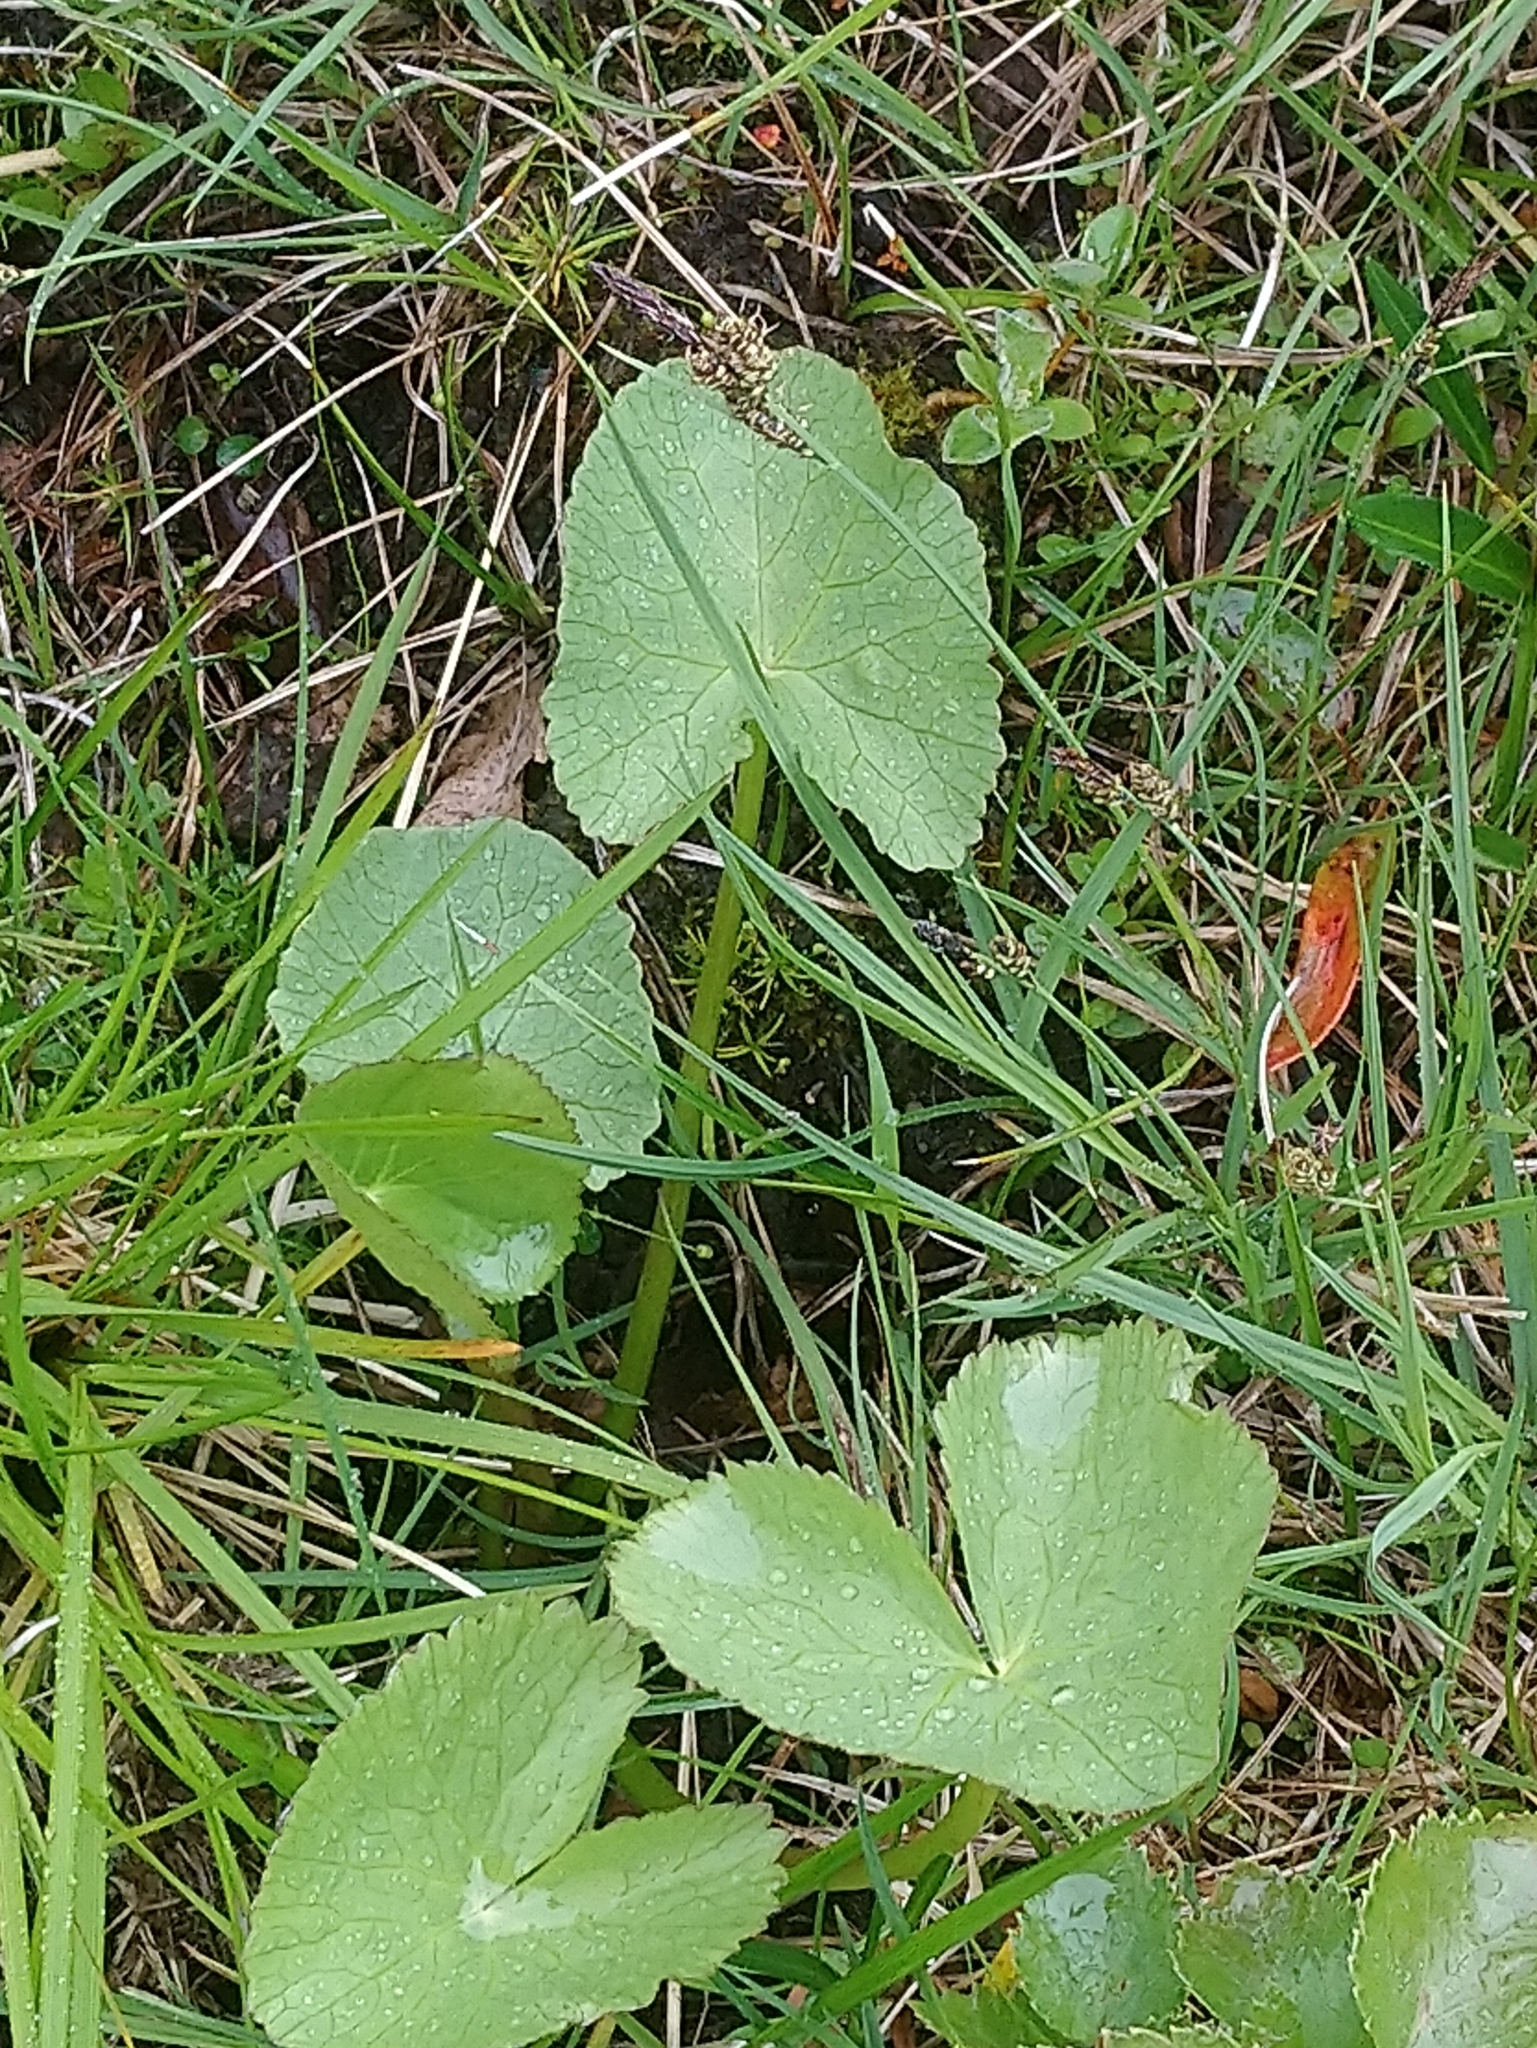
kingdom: Plantae
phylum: Tracheophyta
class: Magnoliopsida
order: Ranunculales
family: Ranunculaceae
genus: Caltha
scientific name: Caltha palustris
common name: Marsh marigold
